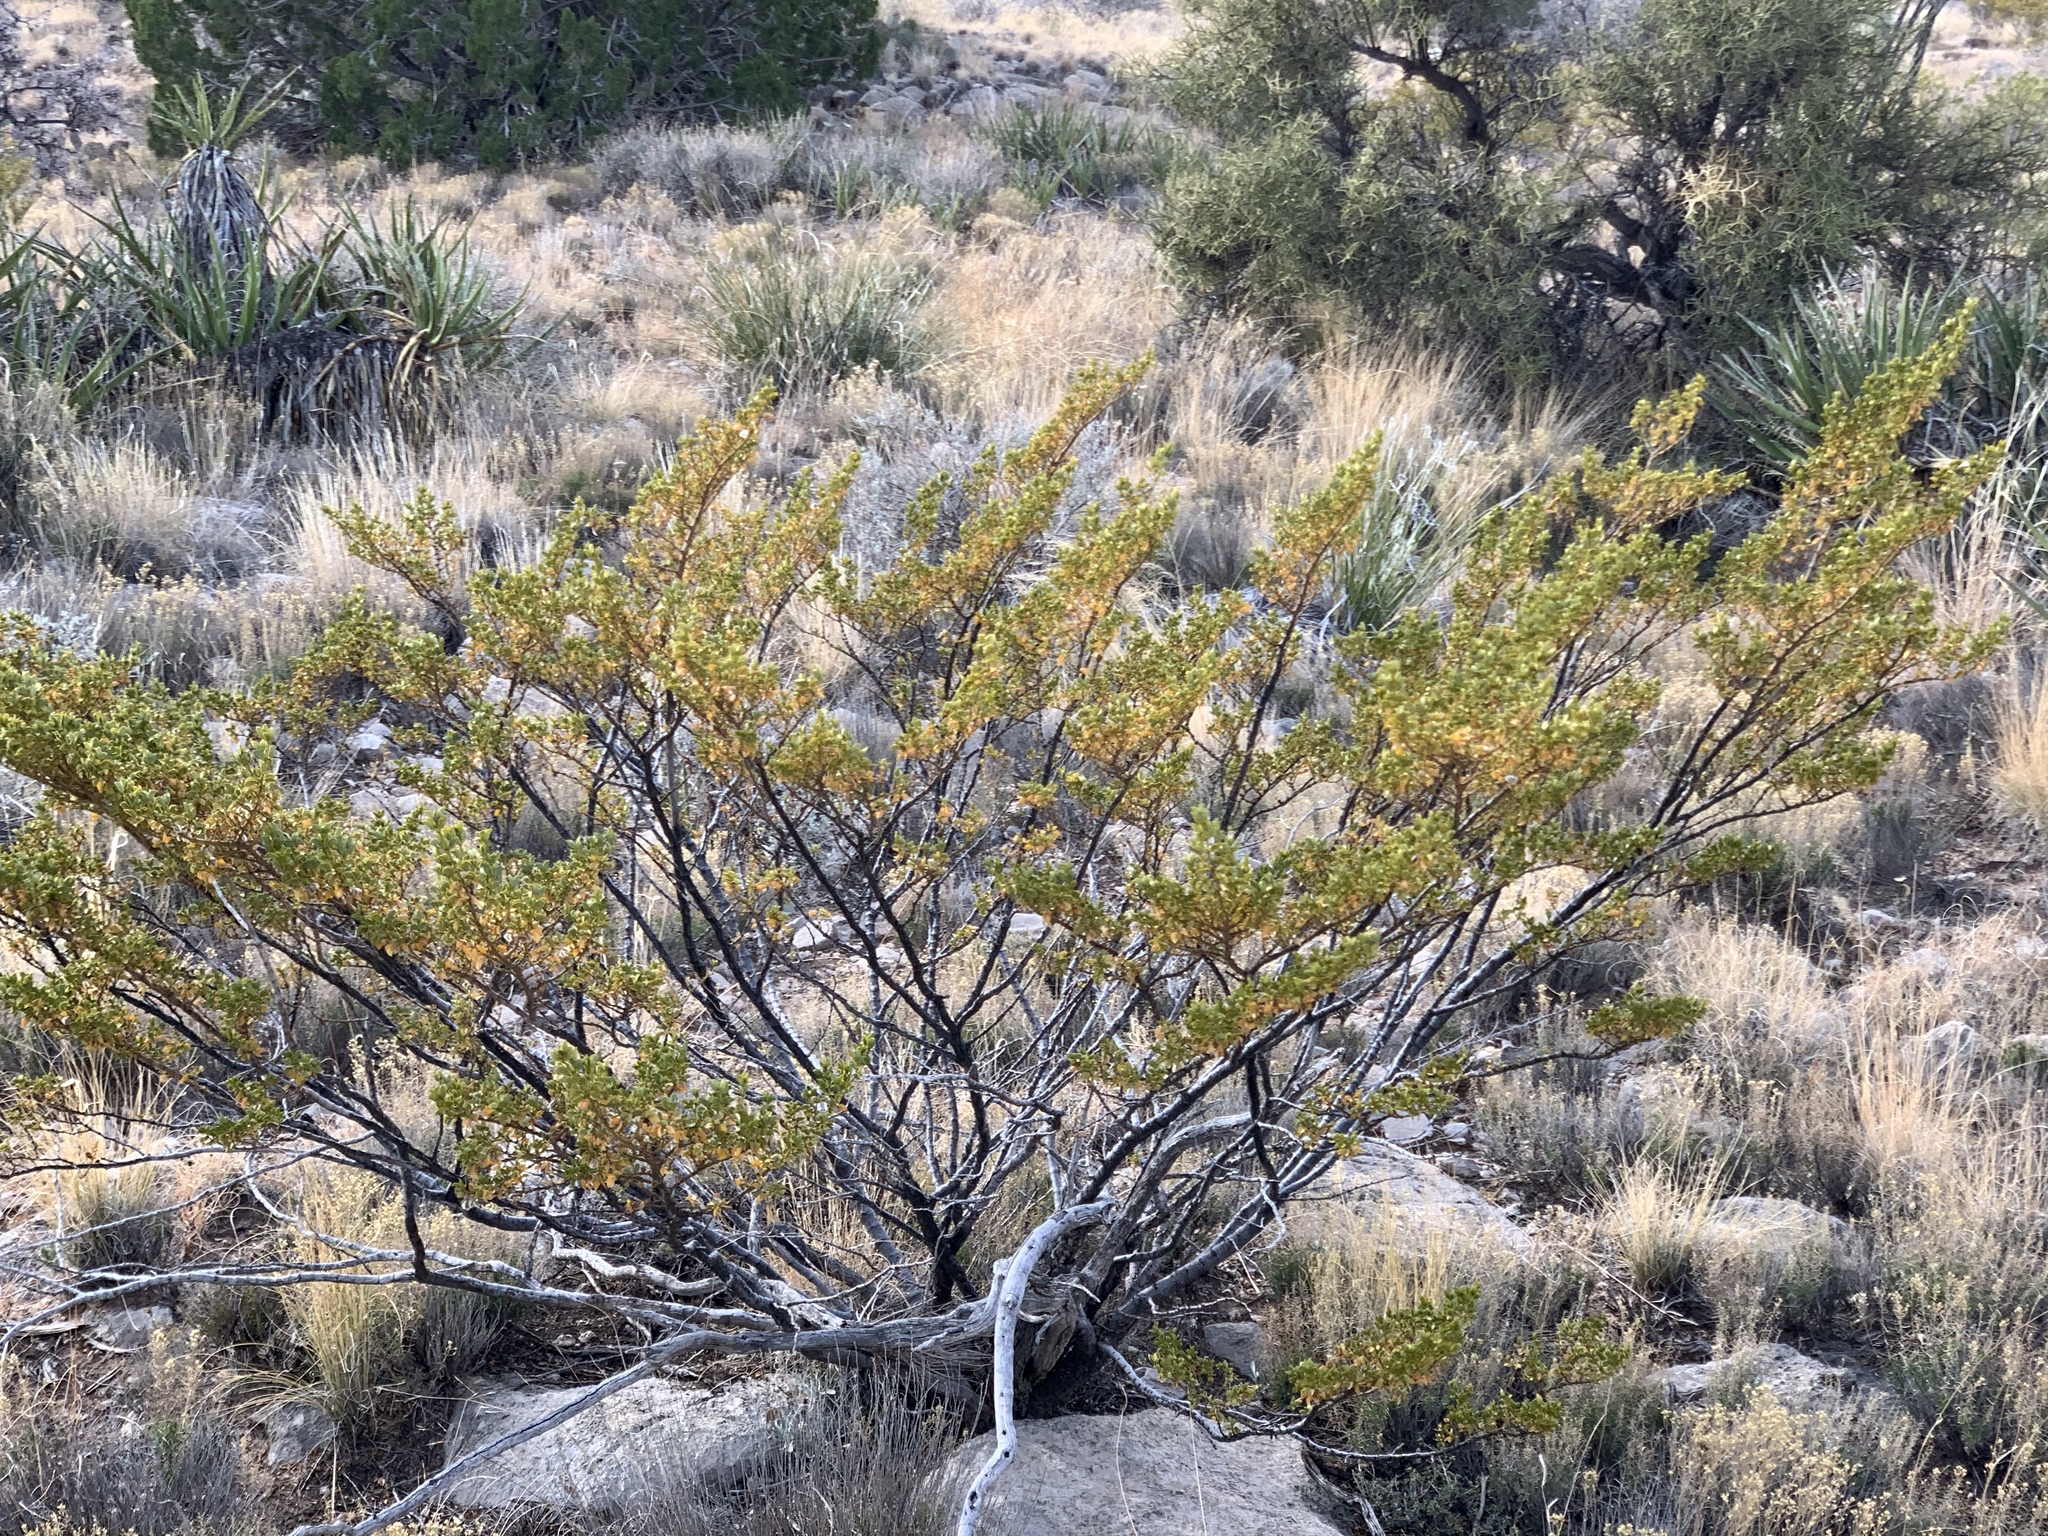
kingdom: Plantae
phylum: Tracheophyta
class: Magnoliopsida
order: Zygophyllales
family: Zygophyllaceae
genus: Larrea
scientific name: Larrea tridentata
